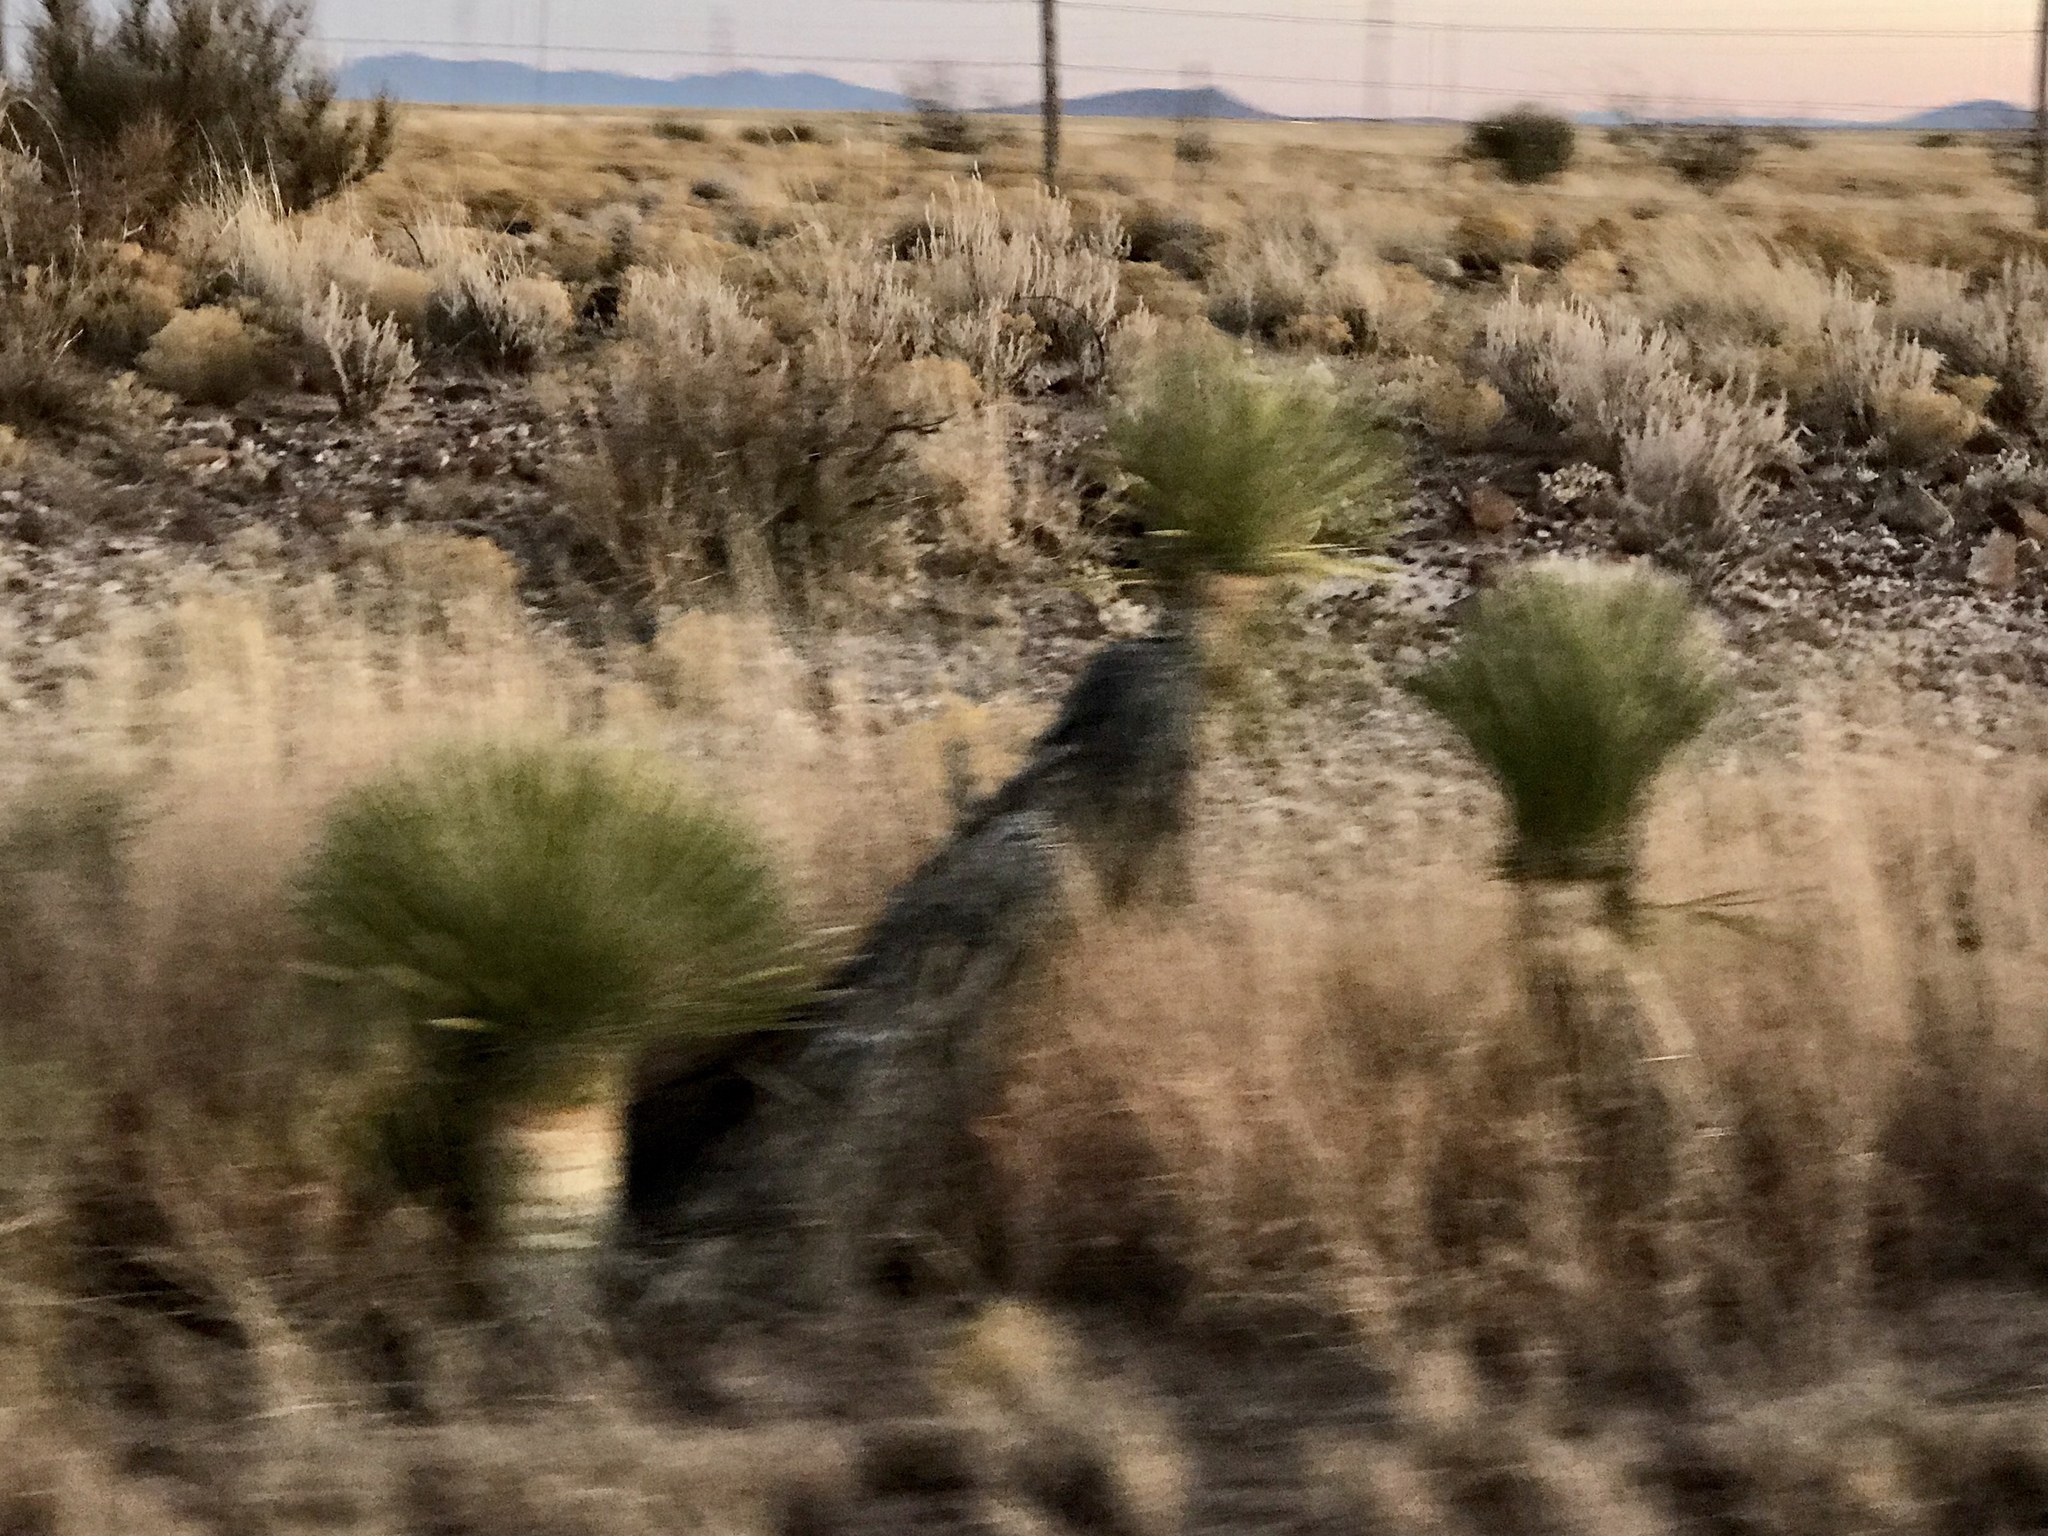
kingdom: Plantae
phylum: Tracheophyta
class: Liliopsida
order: Asparagales
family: Asparagaceae
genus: Yucca
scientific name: Yucca elata
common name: Palmella
